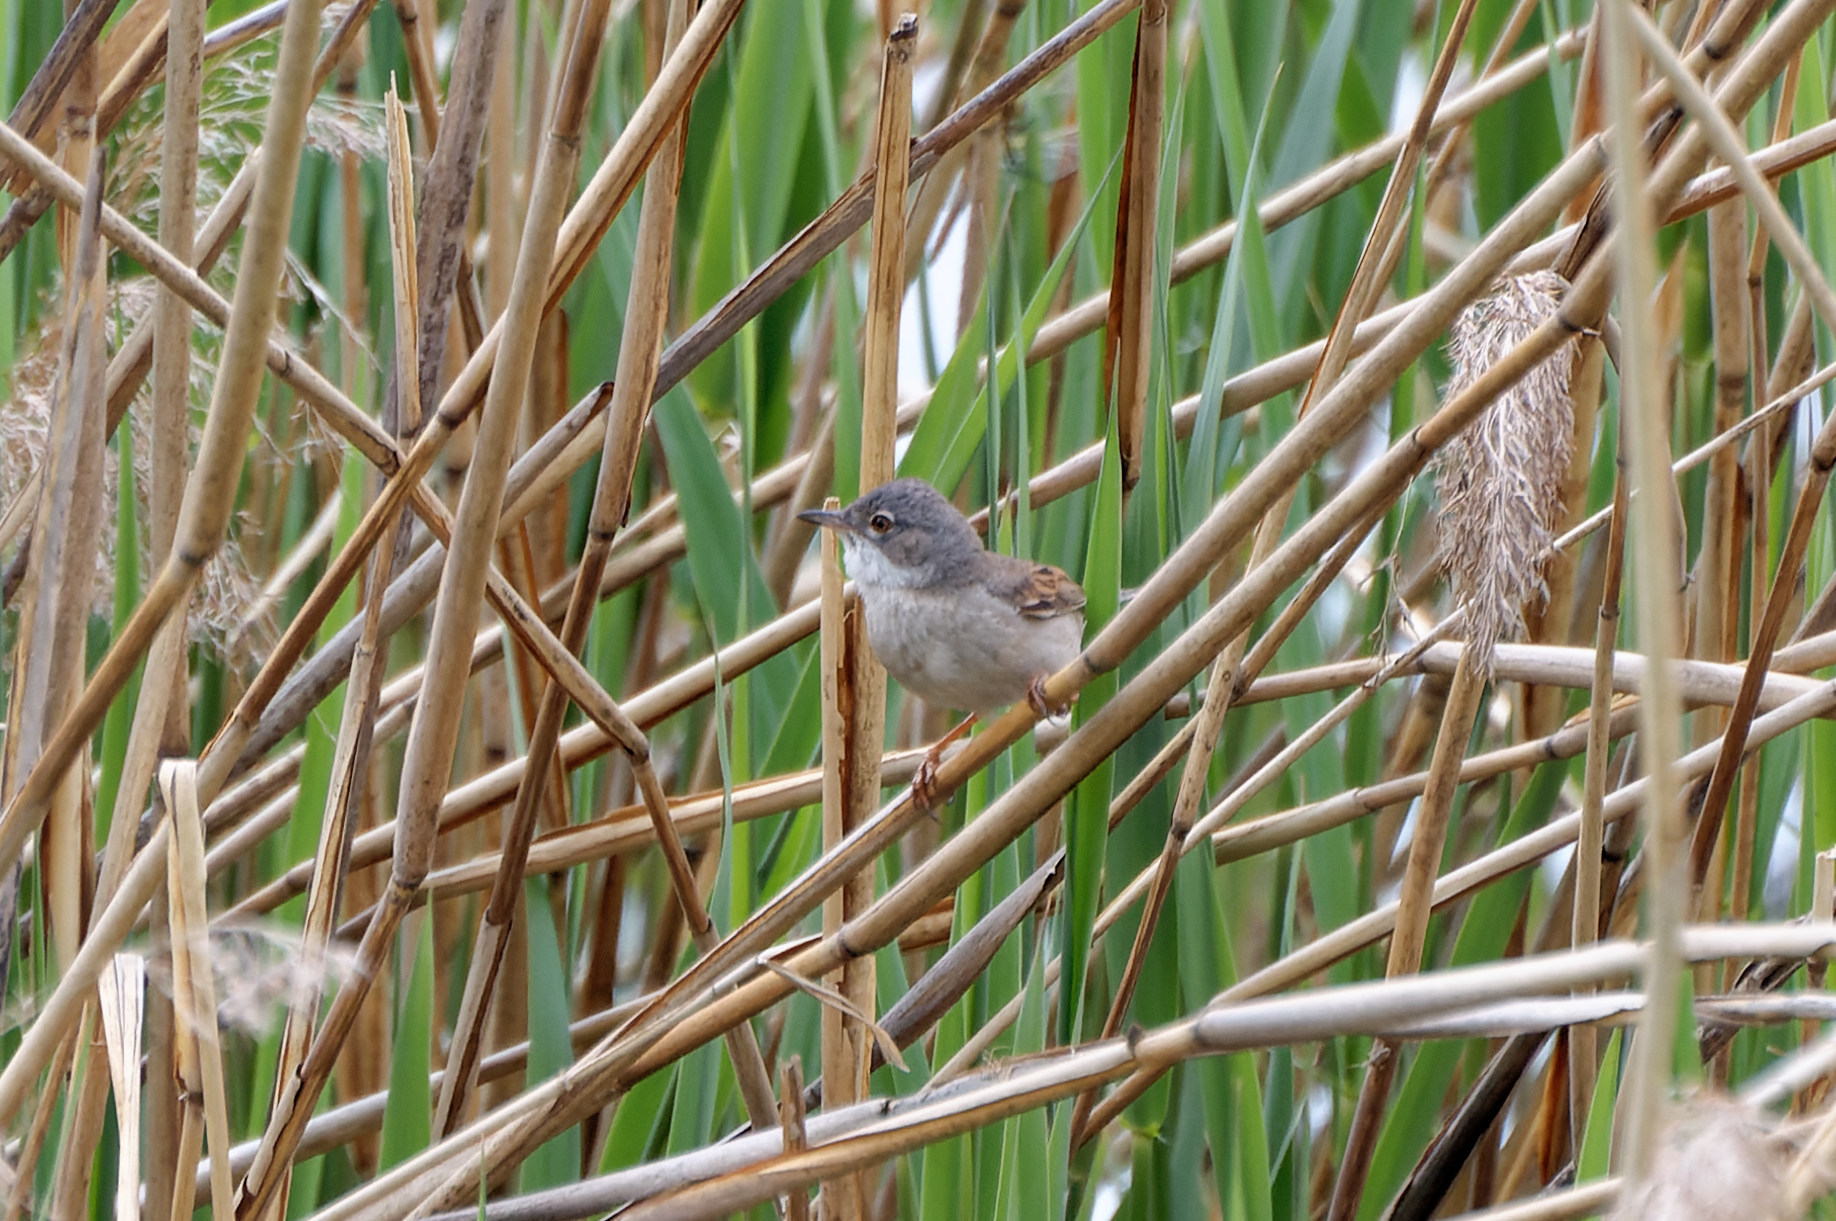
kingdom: Animalia
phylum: Chordata
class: Aves
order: Passeriformes
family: Sylviidae
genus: Sylvia
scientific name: Sylvia communis
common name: Common whitethroat
